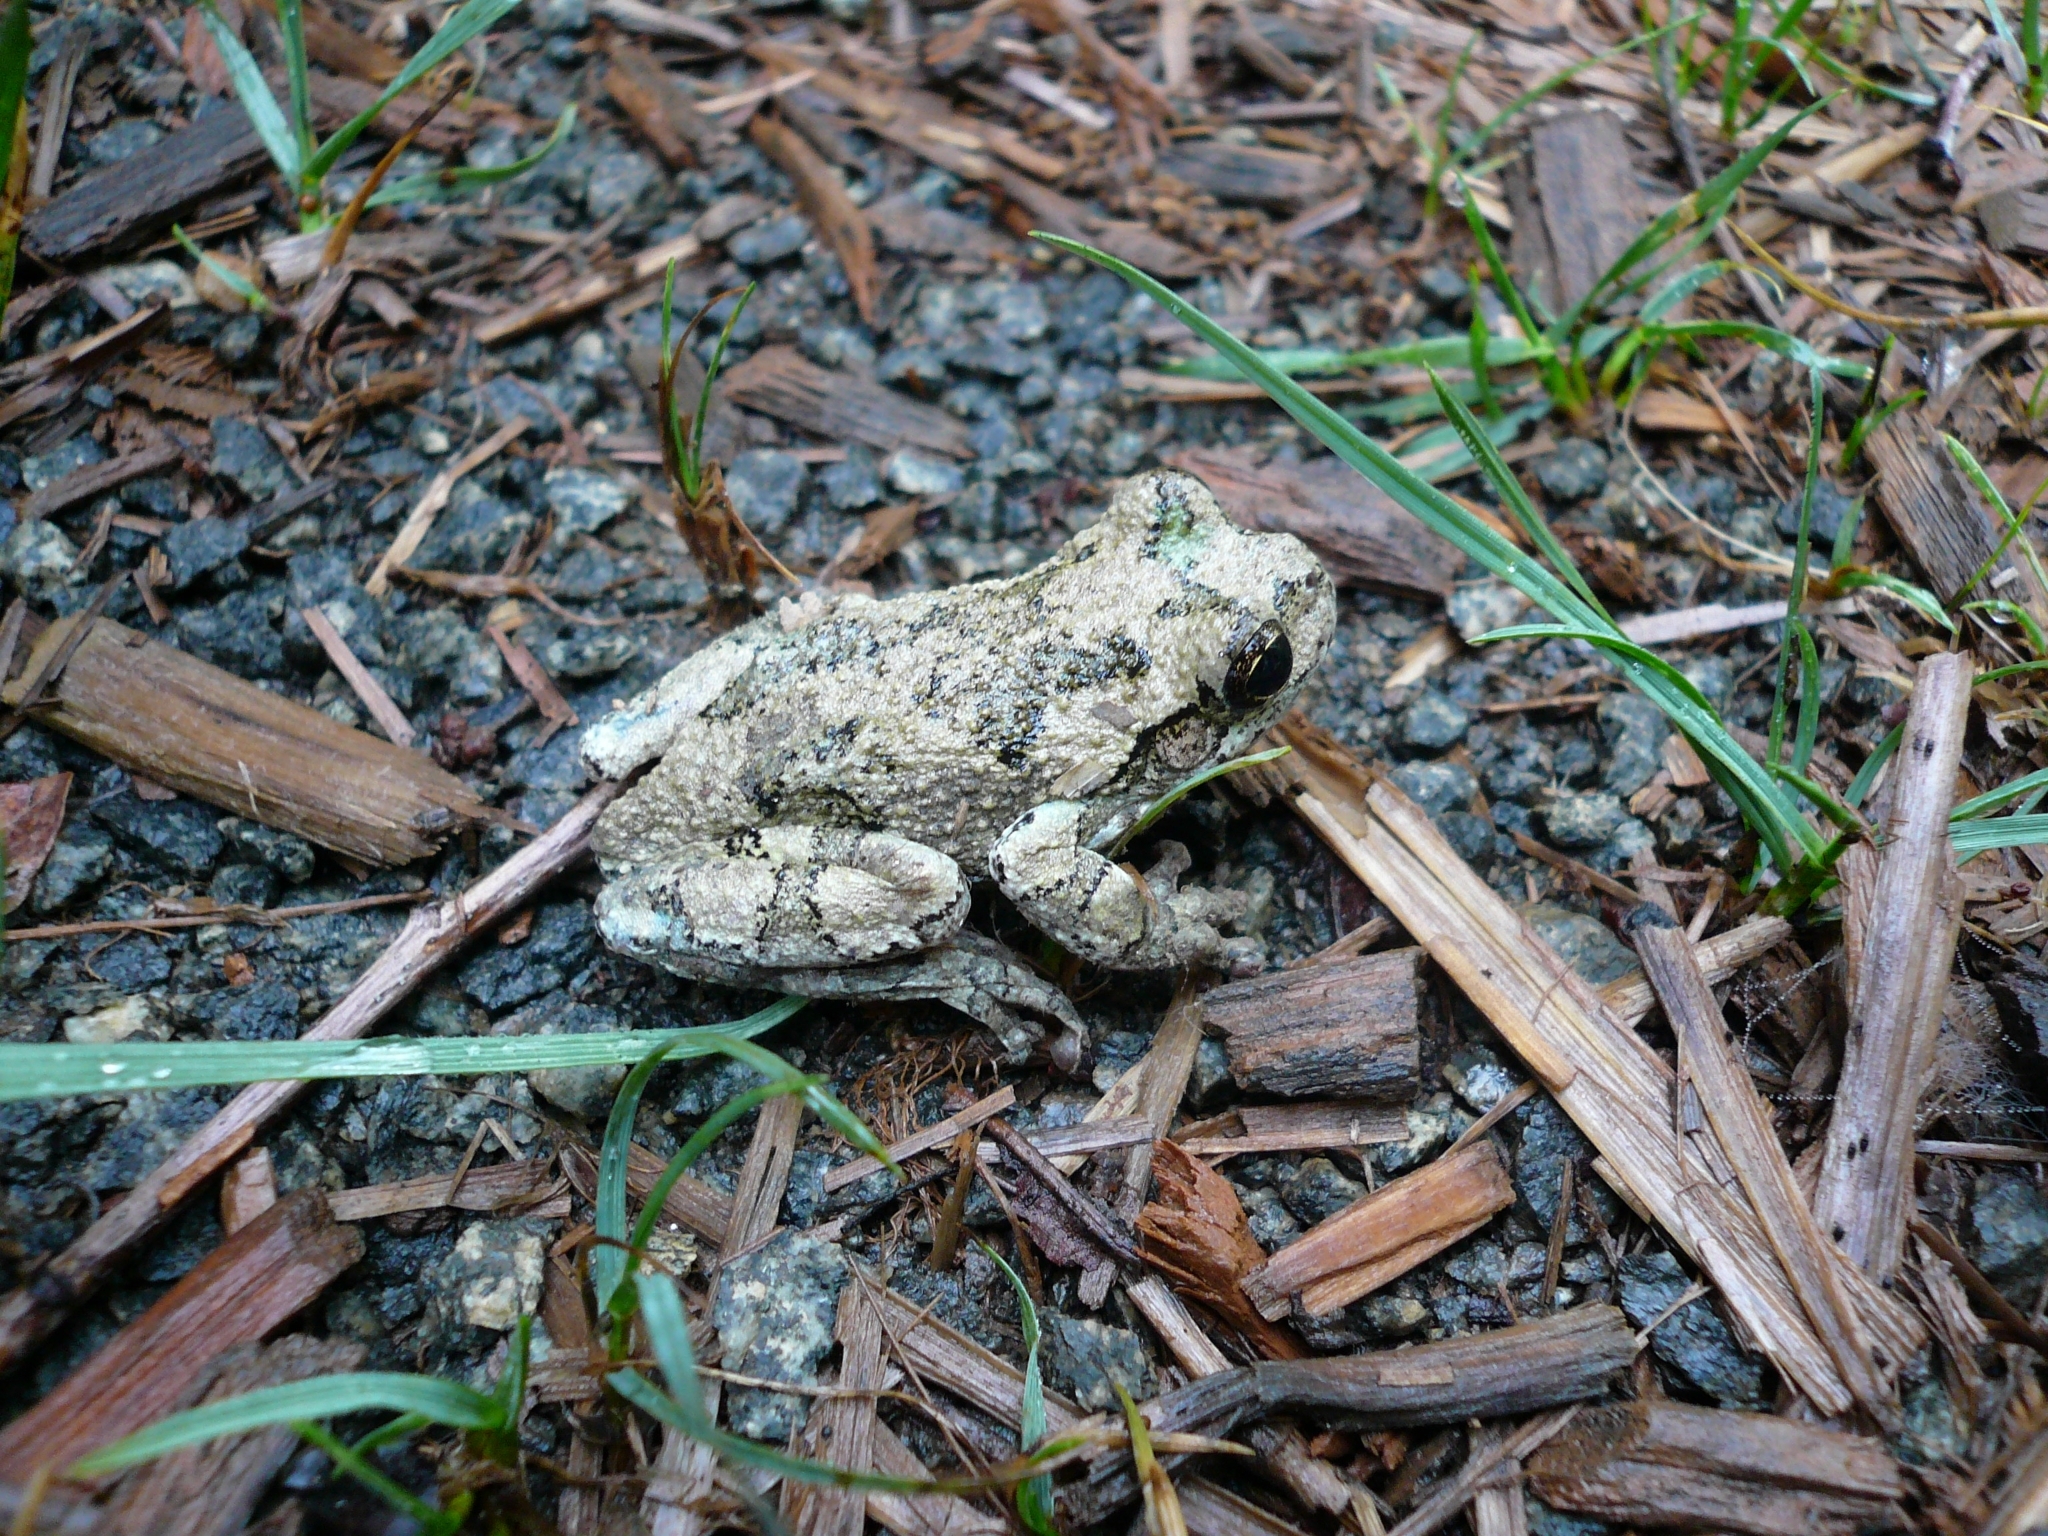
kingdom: Animalia
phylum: Chordata
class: Amphibia
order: Anura
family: Hylidae
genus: Dryophytes
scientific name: Dryophytes versicolor
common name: Gray treefrog
